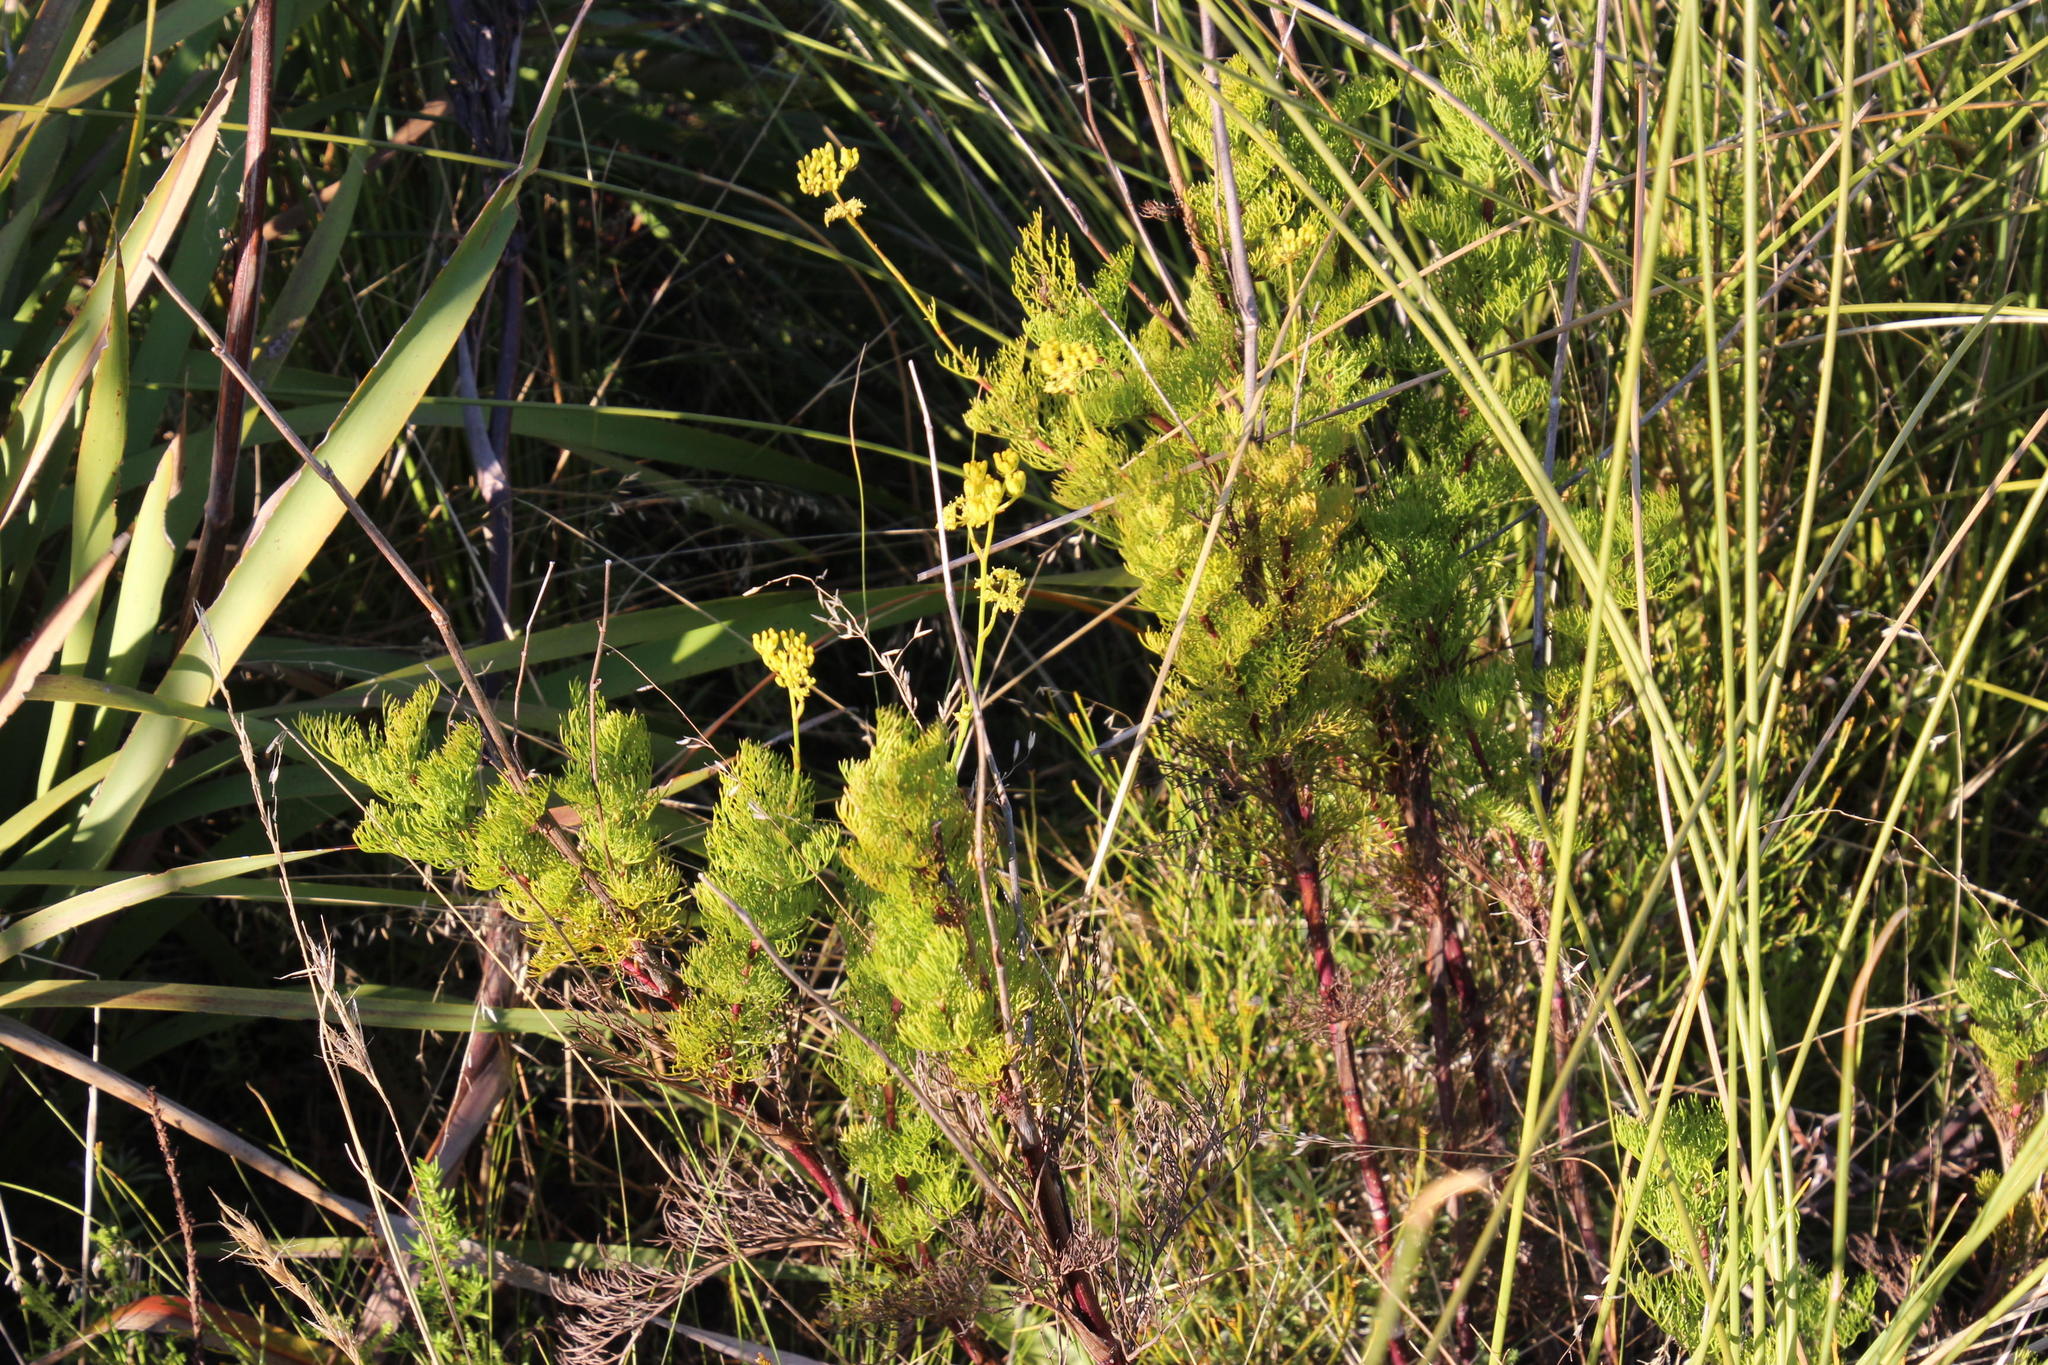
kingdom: Plantae
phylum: Tracheophyta
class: Magnoliopsida
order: Apiales
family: Apiaceae
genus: Notobubon
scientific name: Notobubon ferulaceum
